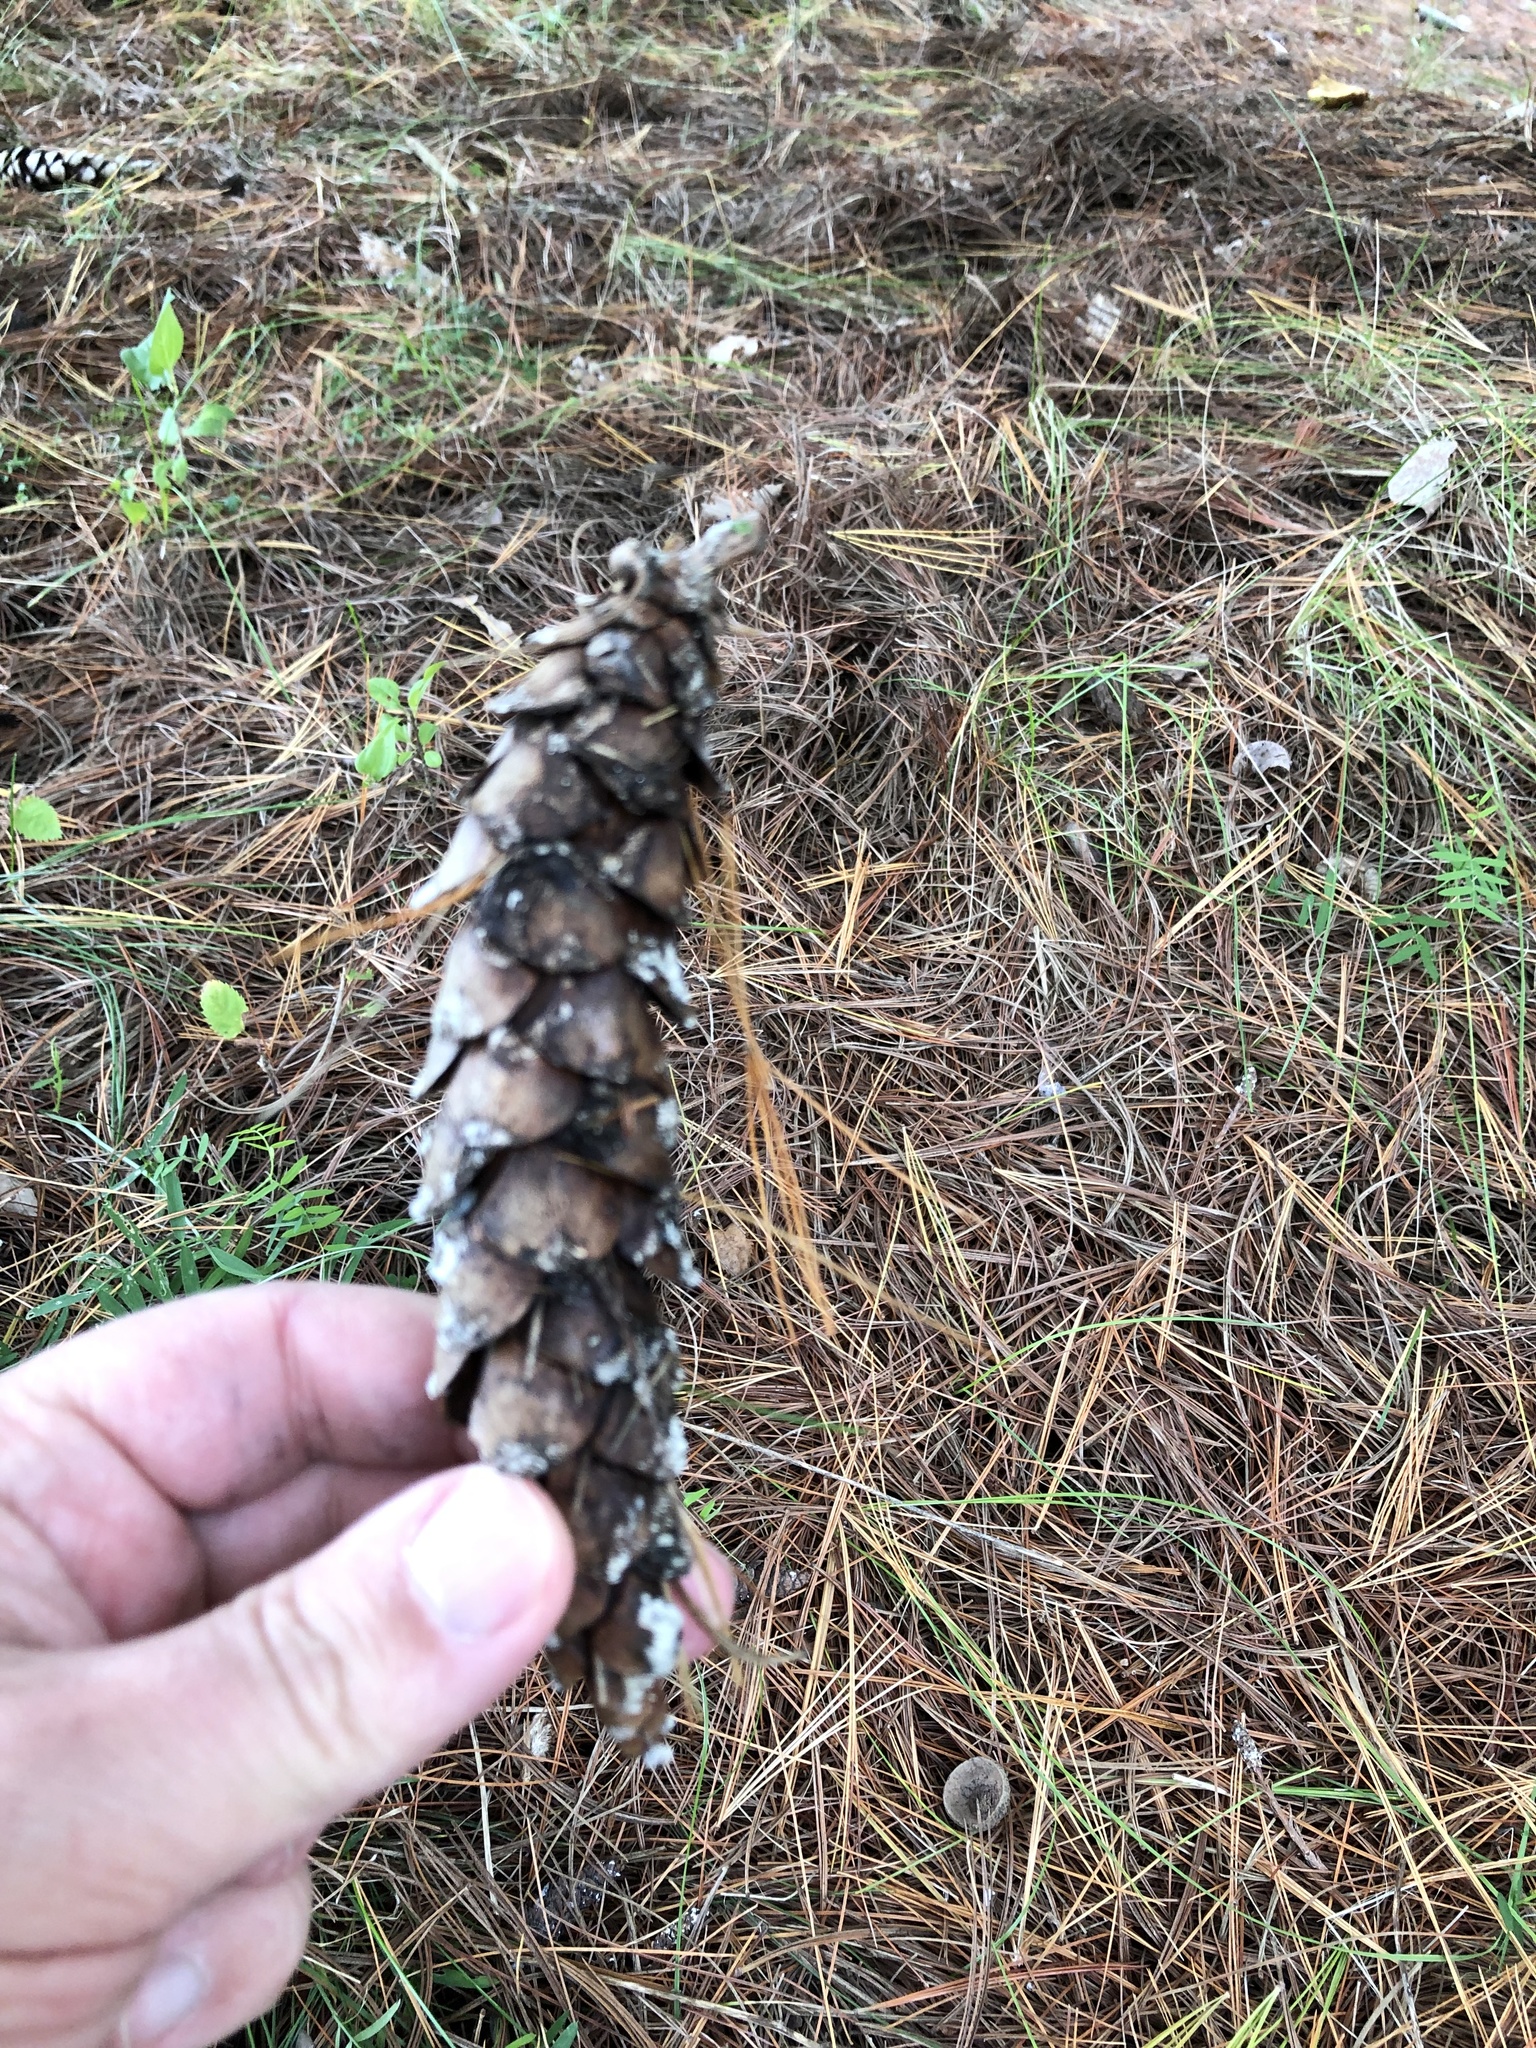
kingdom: Plantae
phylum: Tracheophyta
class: Pinopsida
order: Pinales
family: Pinaceae
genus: Pinus
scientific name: Pinus strobus
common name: Weymouth pine
